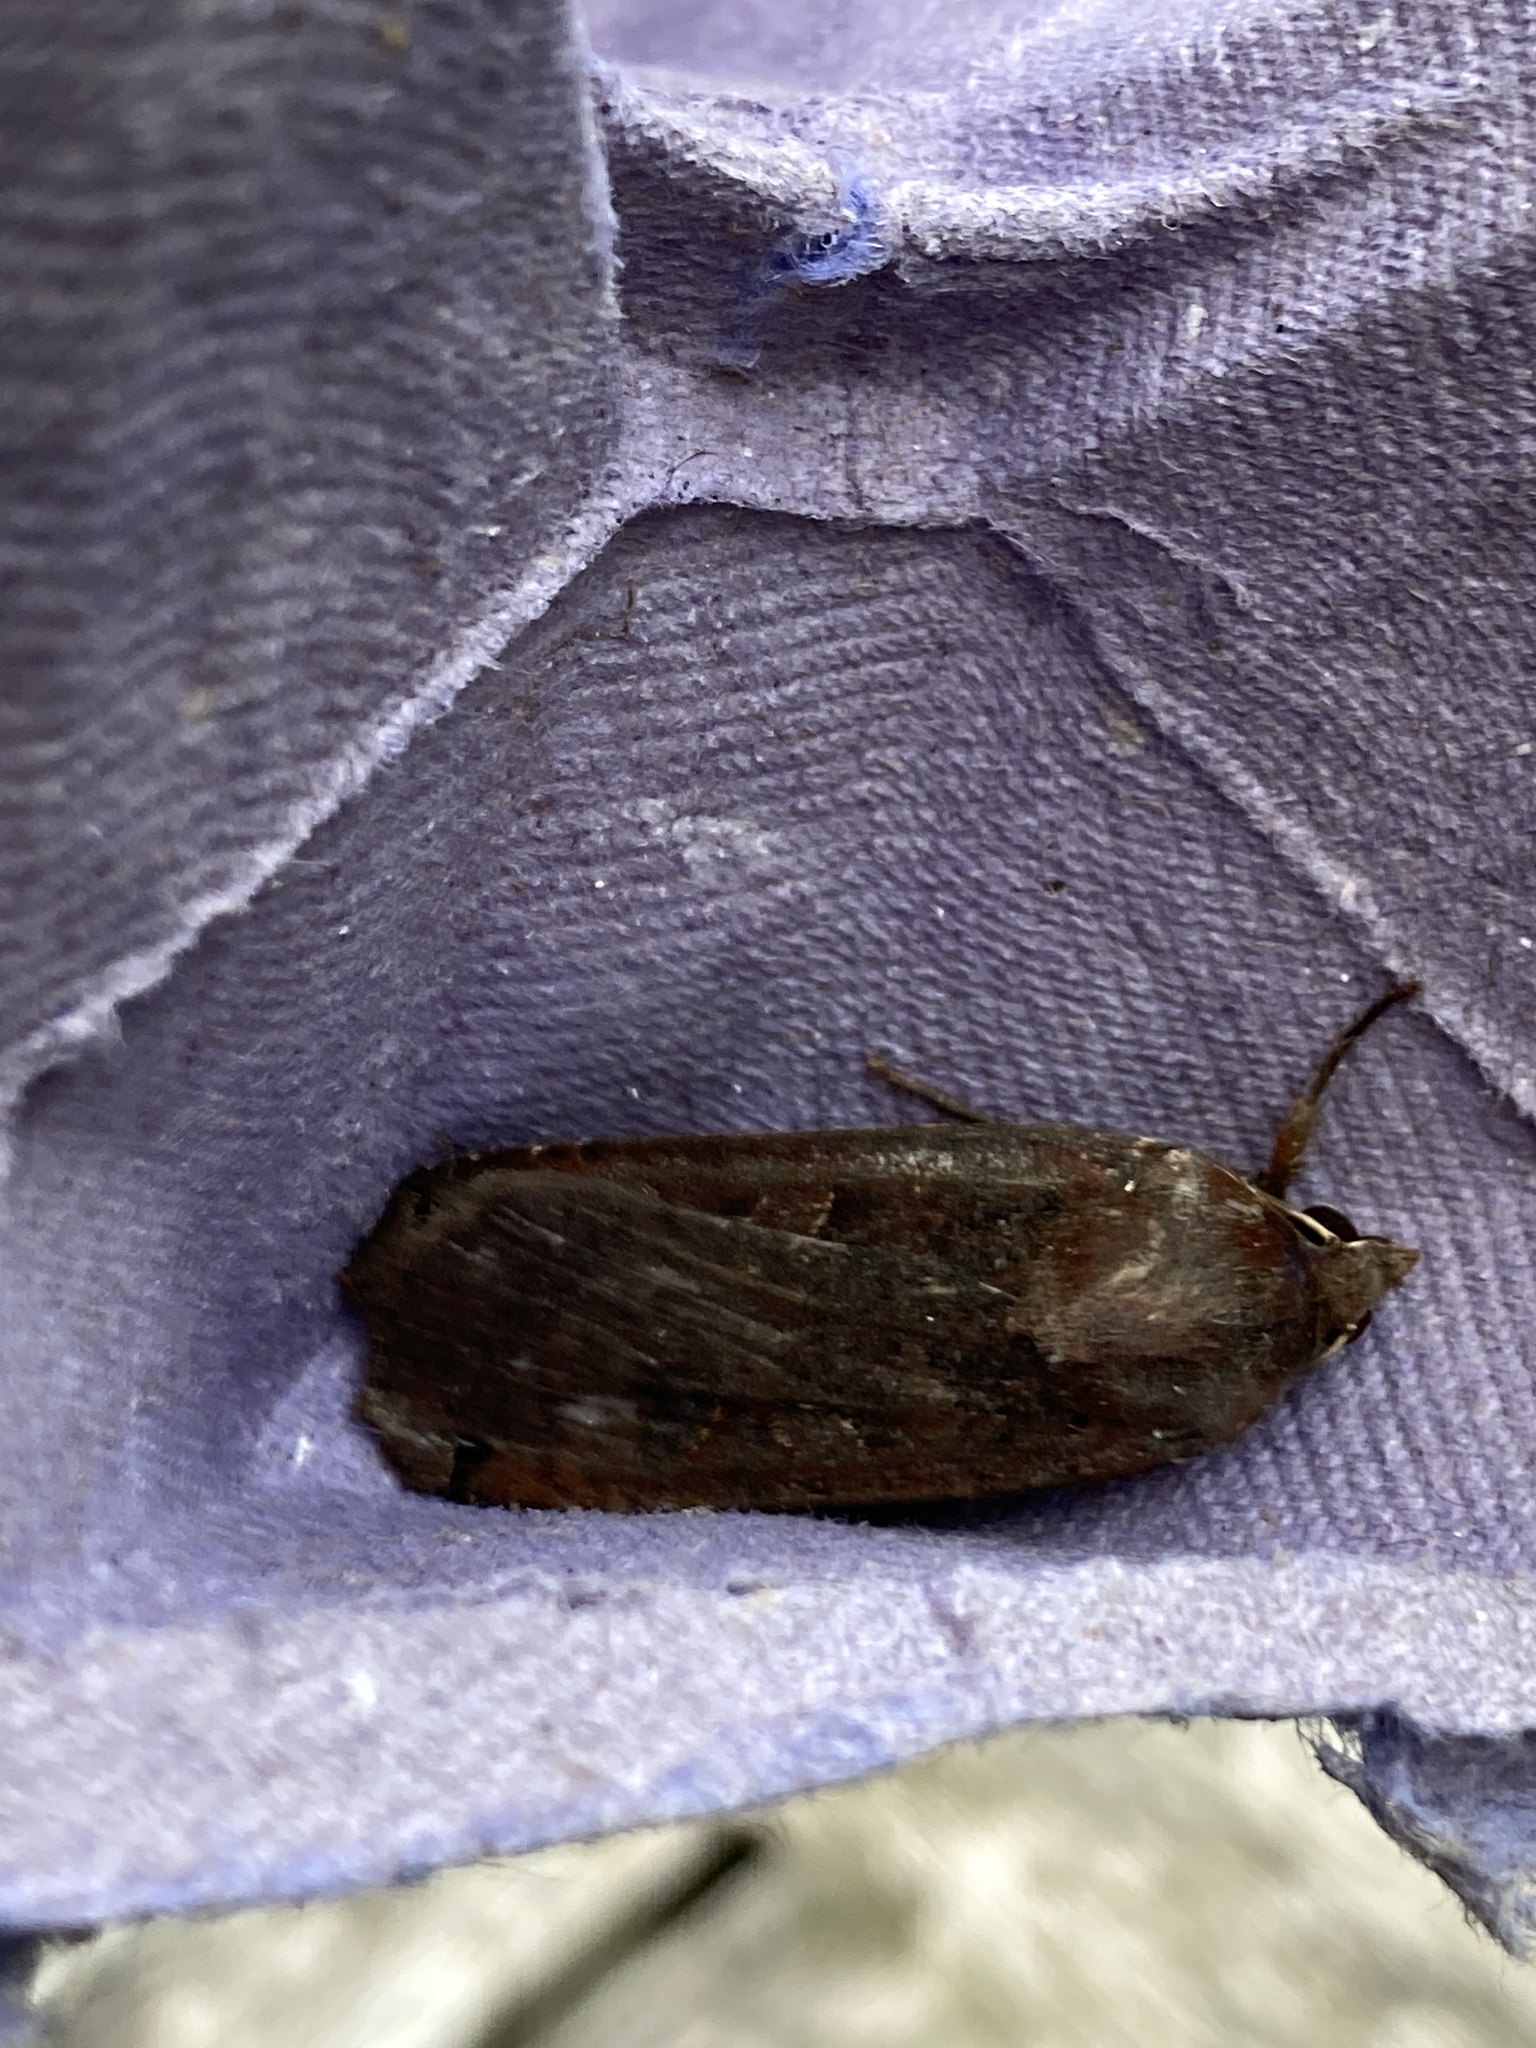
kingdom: Animalia
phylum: Arthropoda
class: Insecta
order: Lepidoptera
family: Noctuidae
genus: Noctua
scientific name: Noctua pronuba
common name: Large yellow underwing
